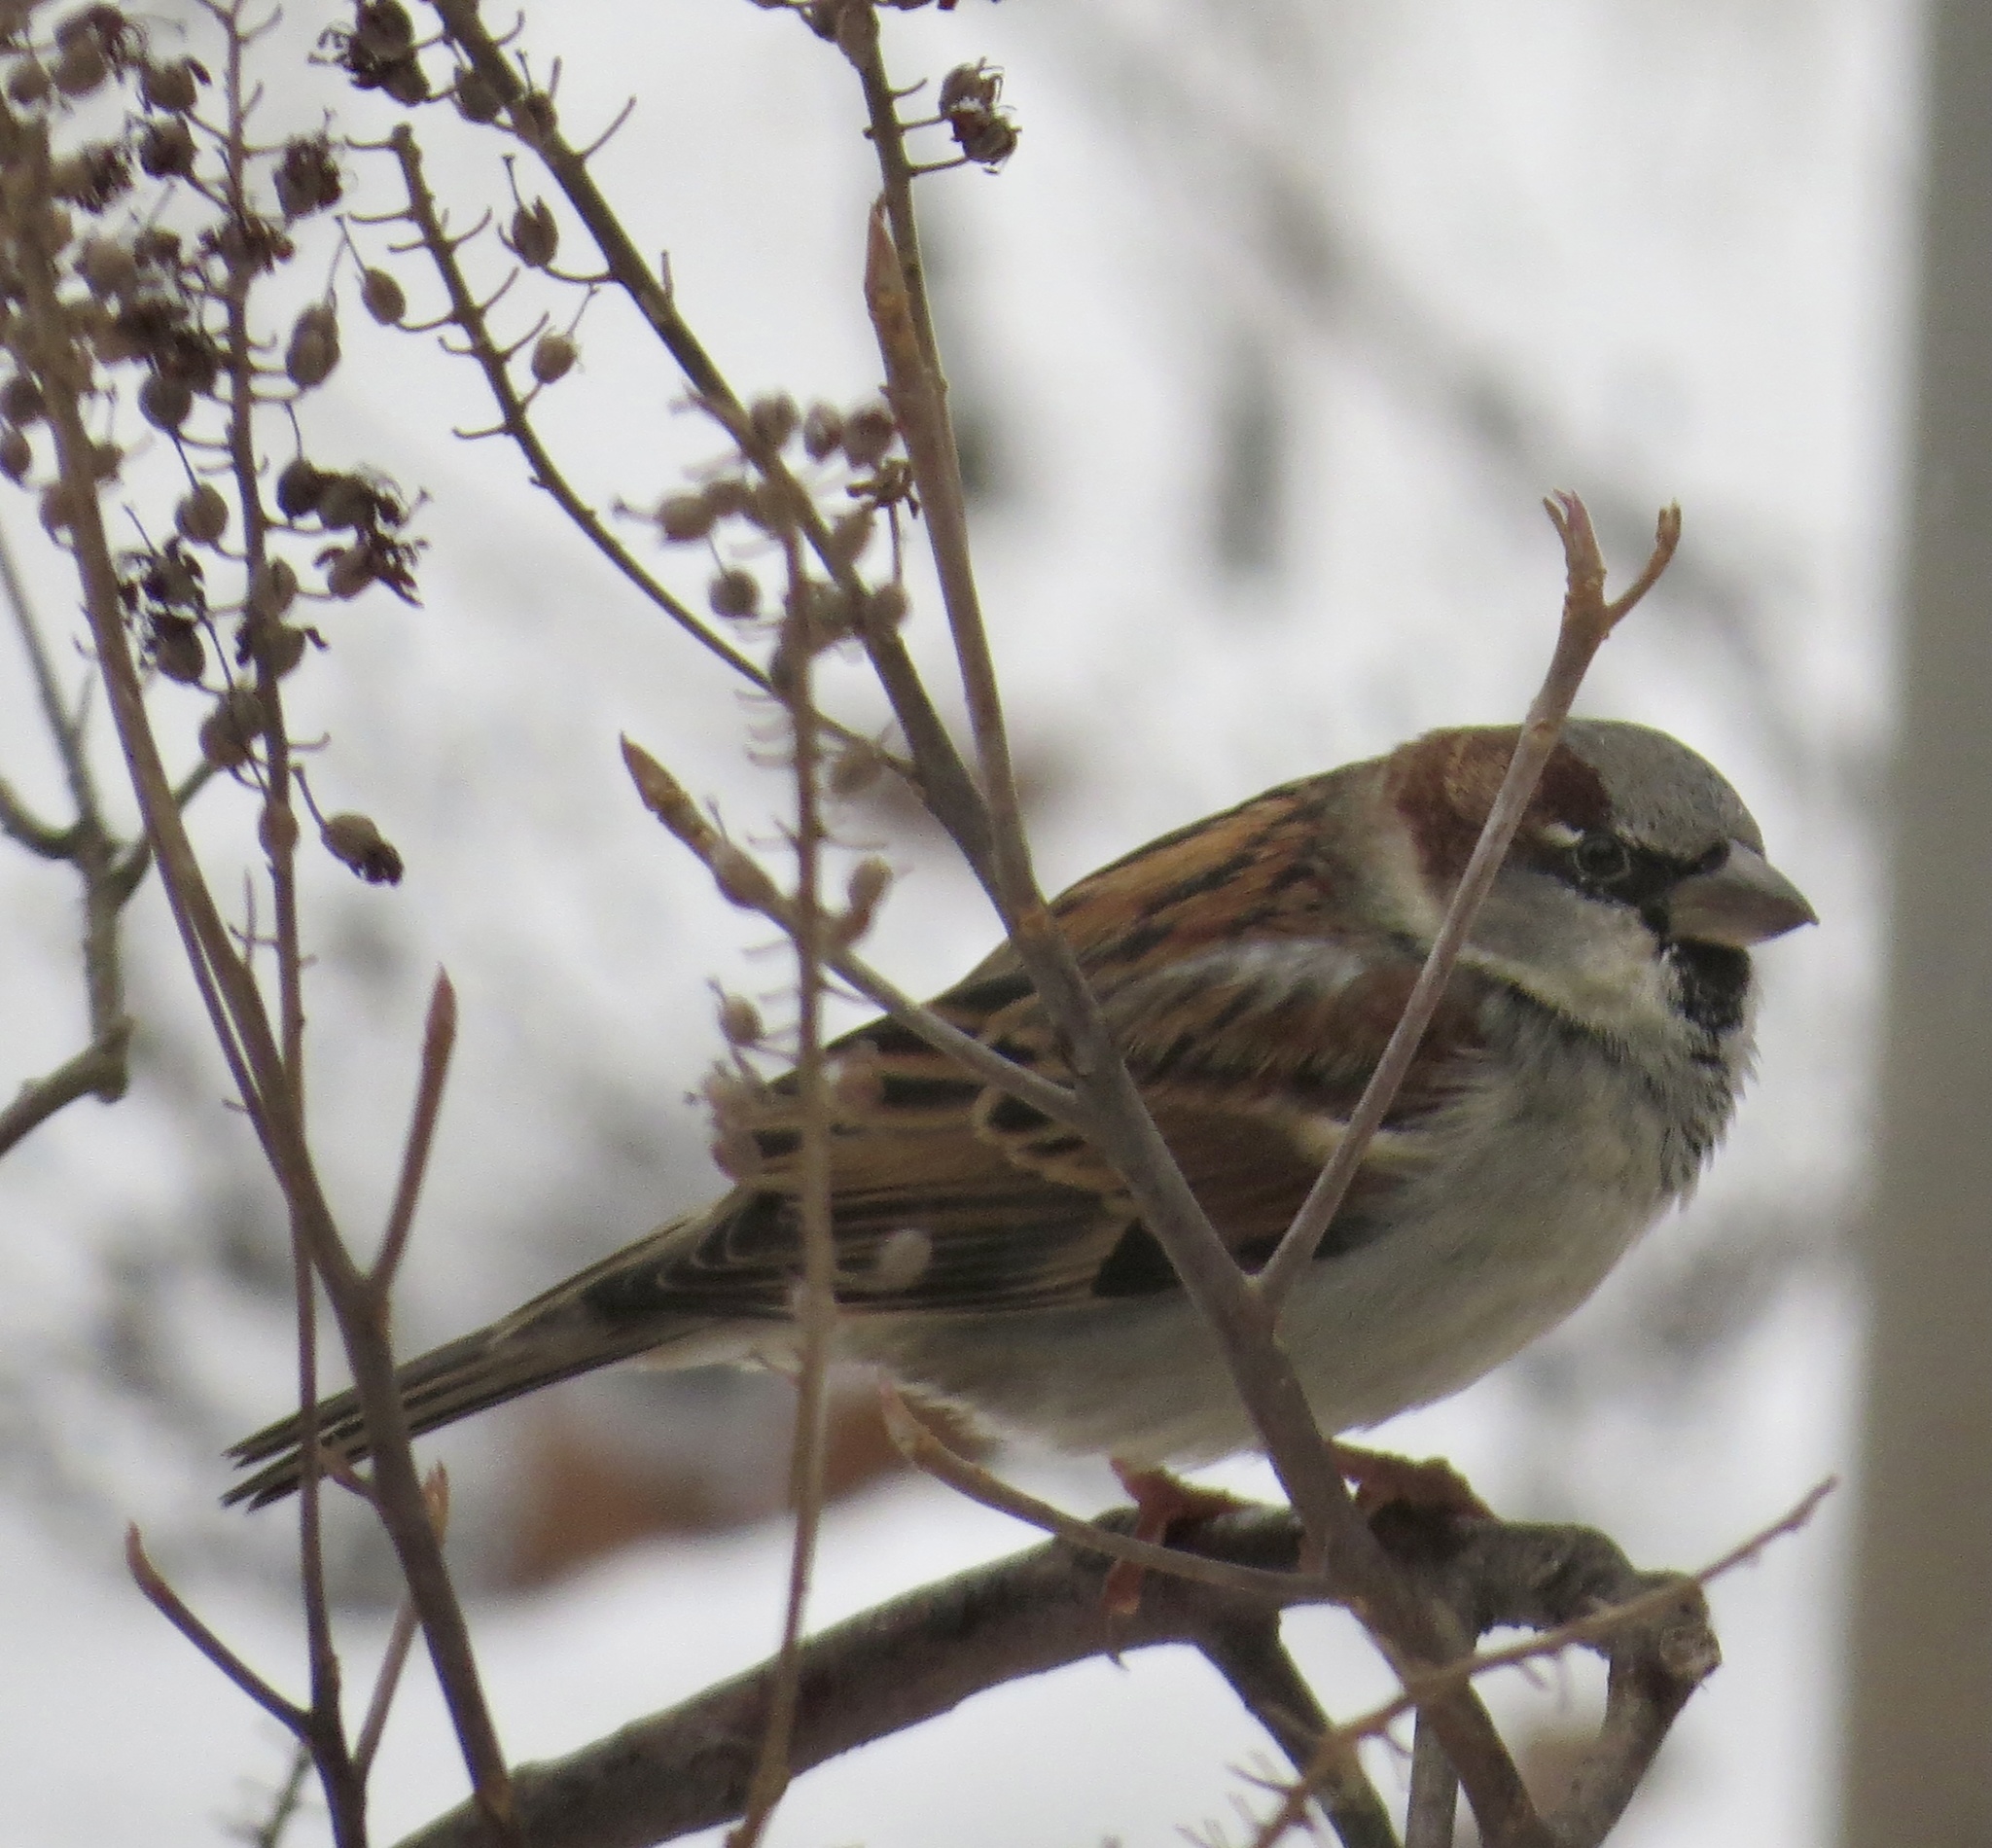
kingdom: Animalia
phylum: Chordata
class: Aves
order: Passeriformes
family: Passeridae
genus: Passer
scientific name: Passer domesticus
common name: House sparrow
